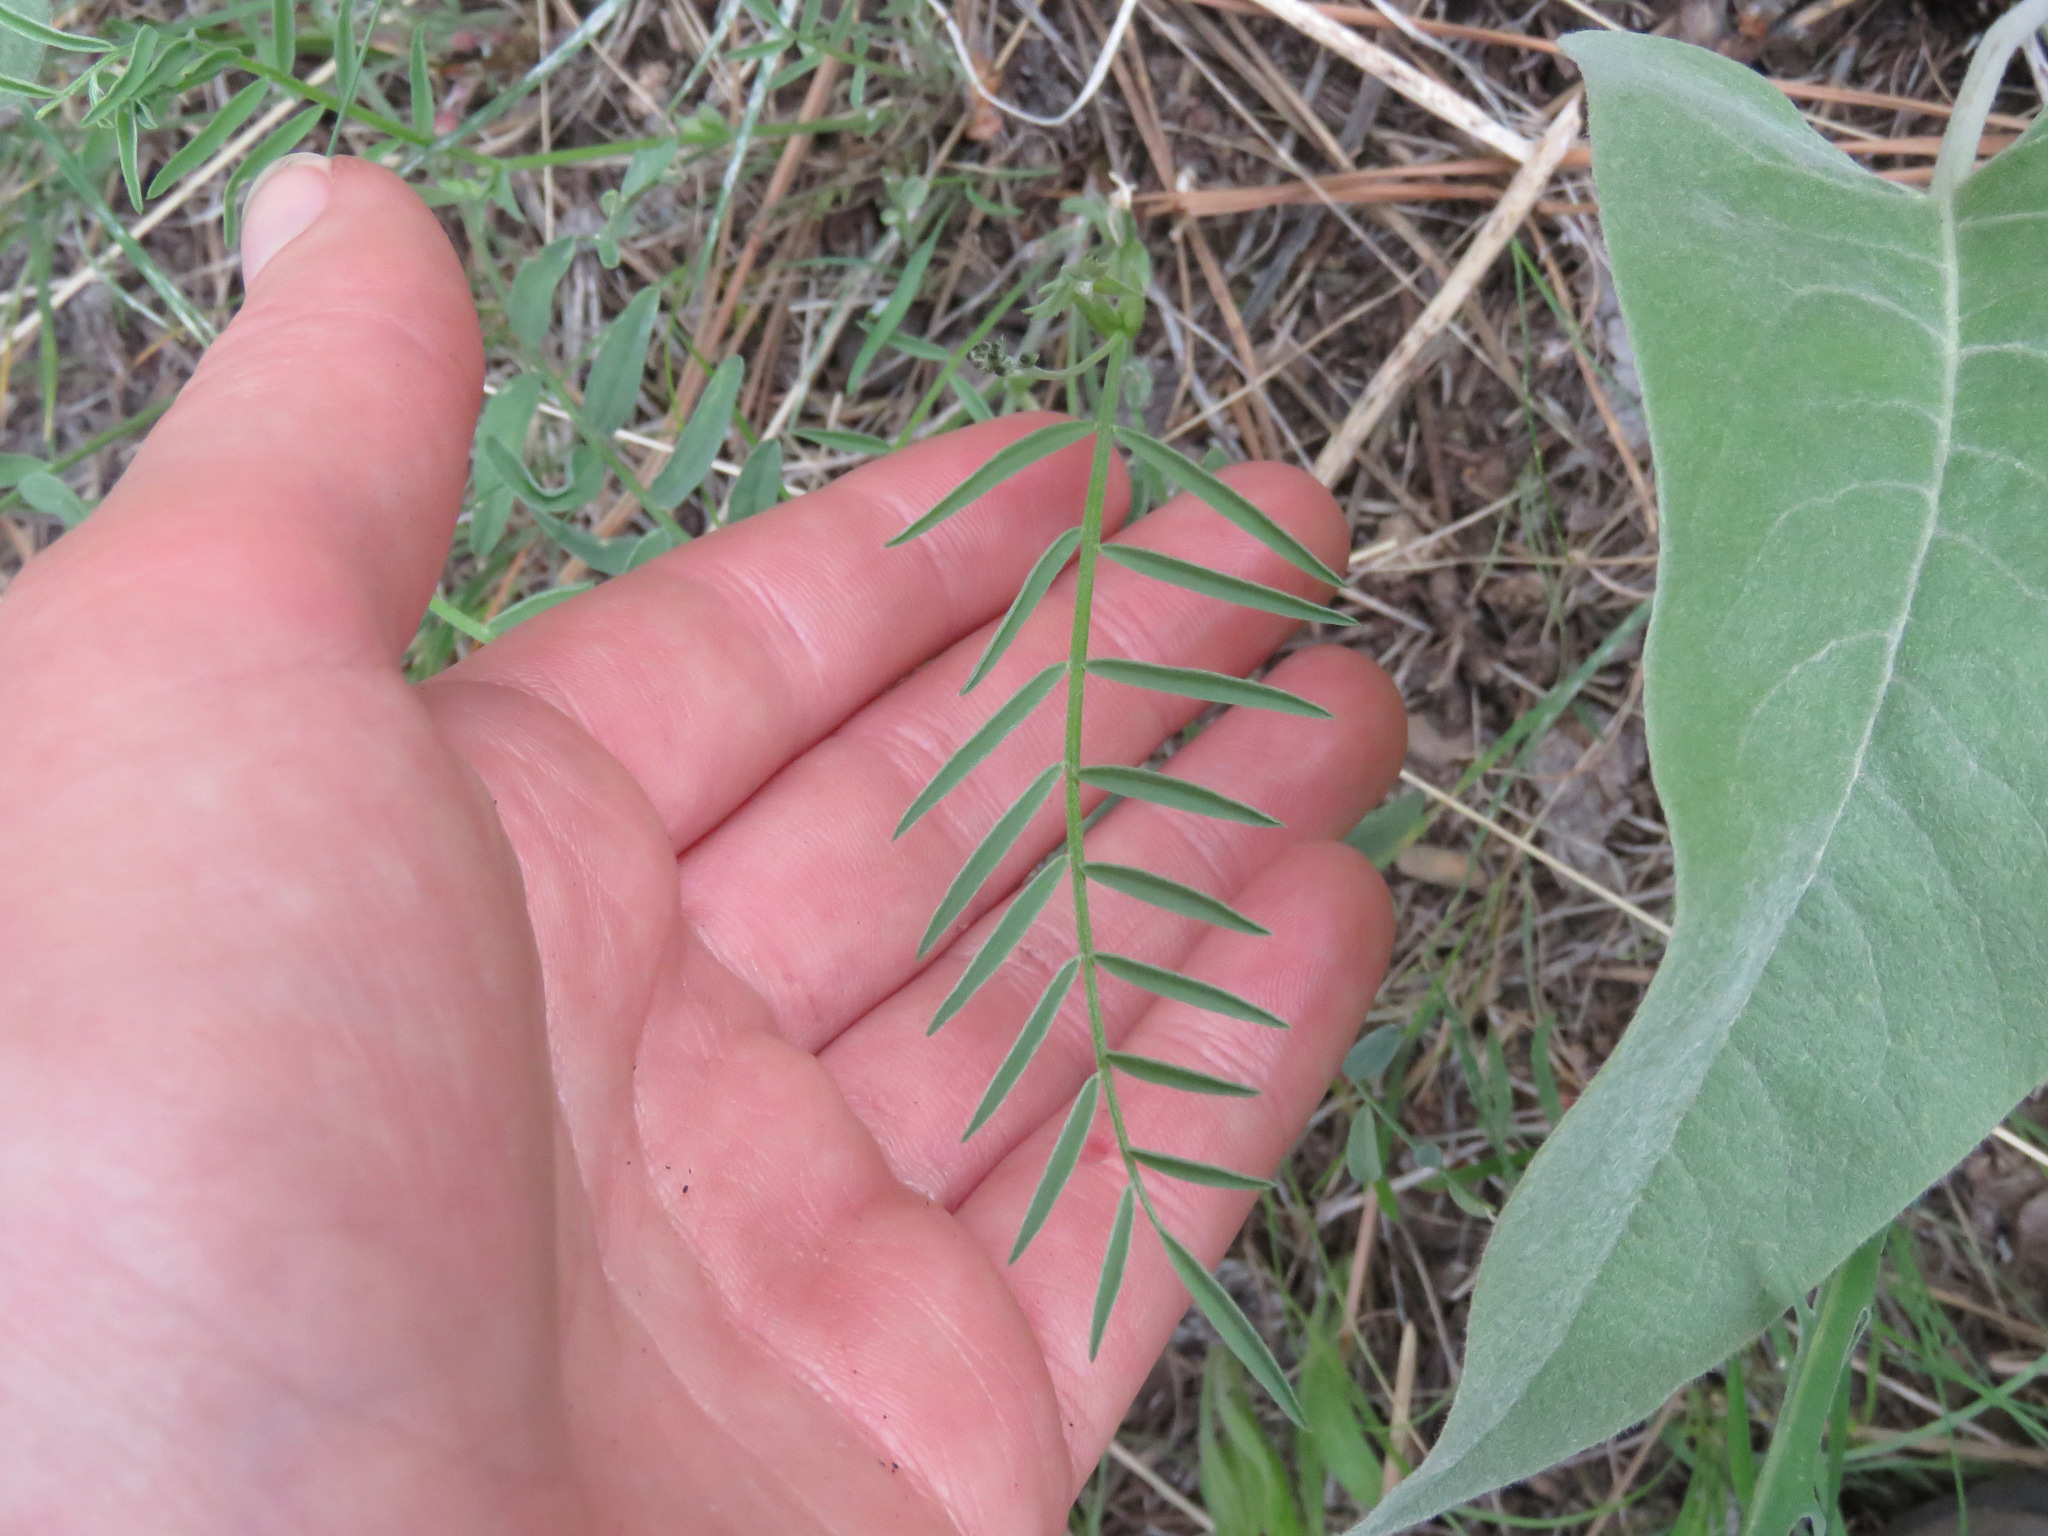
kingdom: Plantae
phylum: Tracheophyta
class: Magnoliopsida
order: Fabales
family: Fabaceae
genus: Astragalus
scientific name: Astragalus miser
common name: Timber milkvetch
